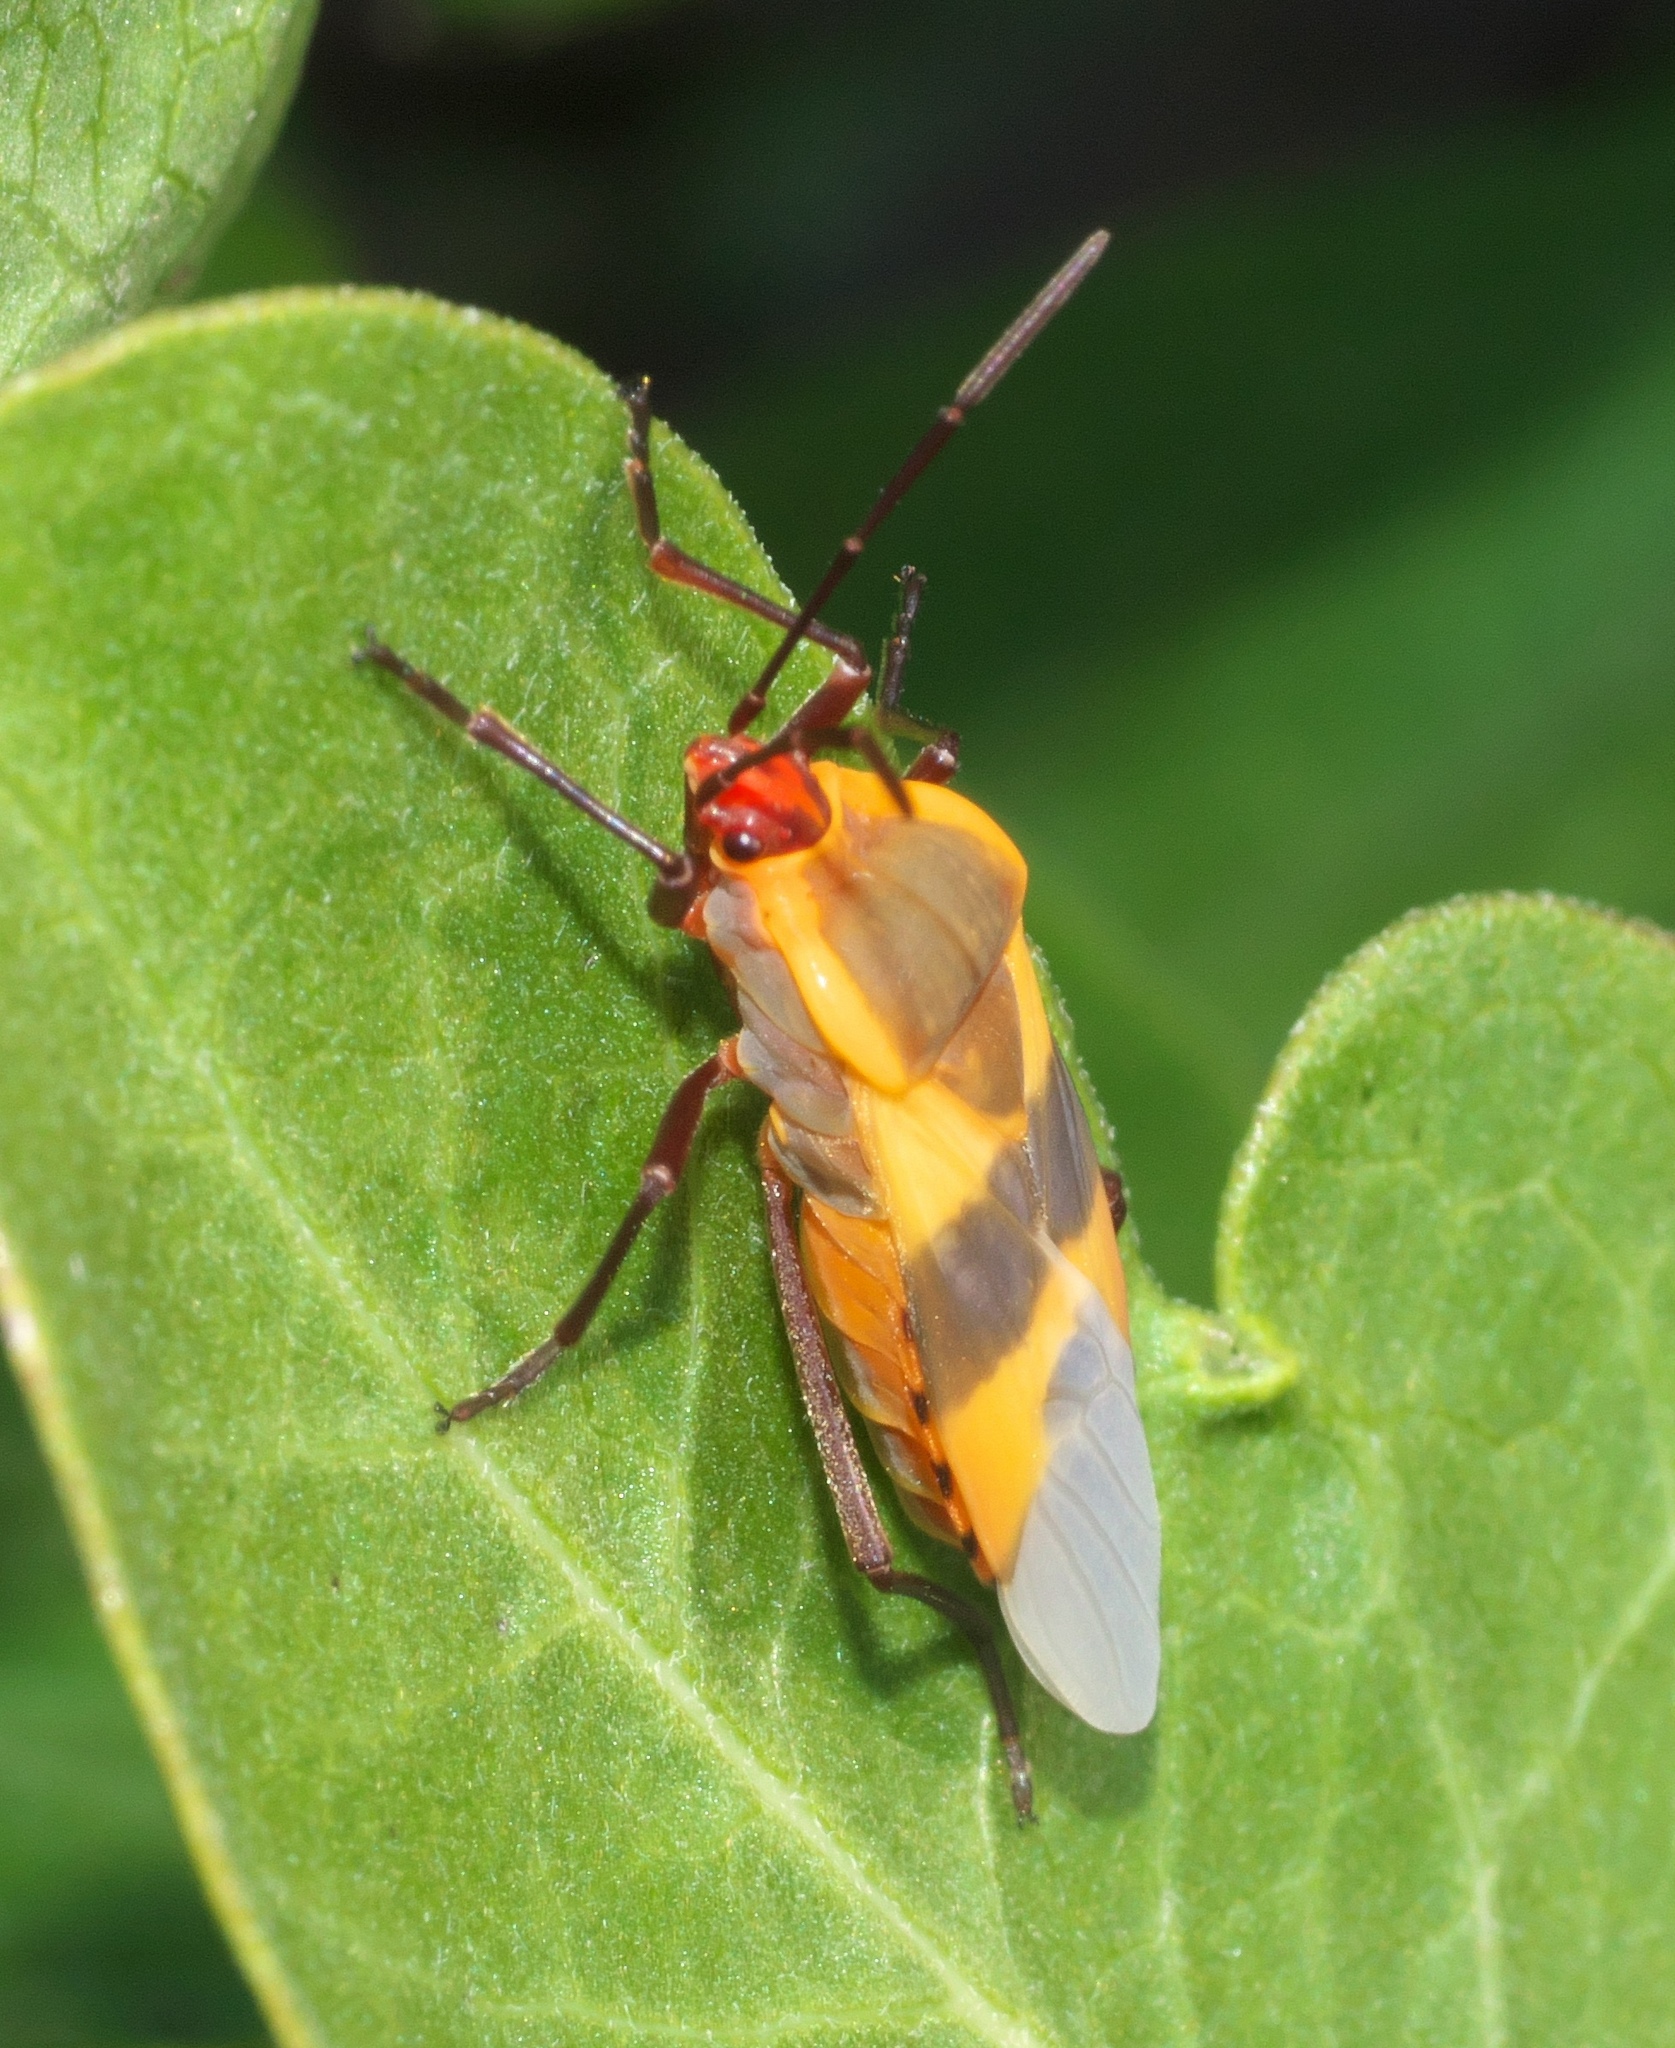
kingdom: Animalia
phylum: Arthropoda
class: Insecta
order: Hemiptera
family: Lygaeidae
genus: Oncopeltus
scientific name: Oncopeltus fasciatus
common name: Large milkweed bug
